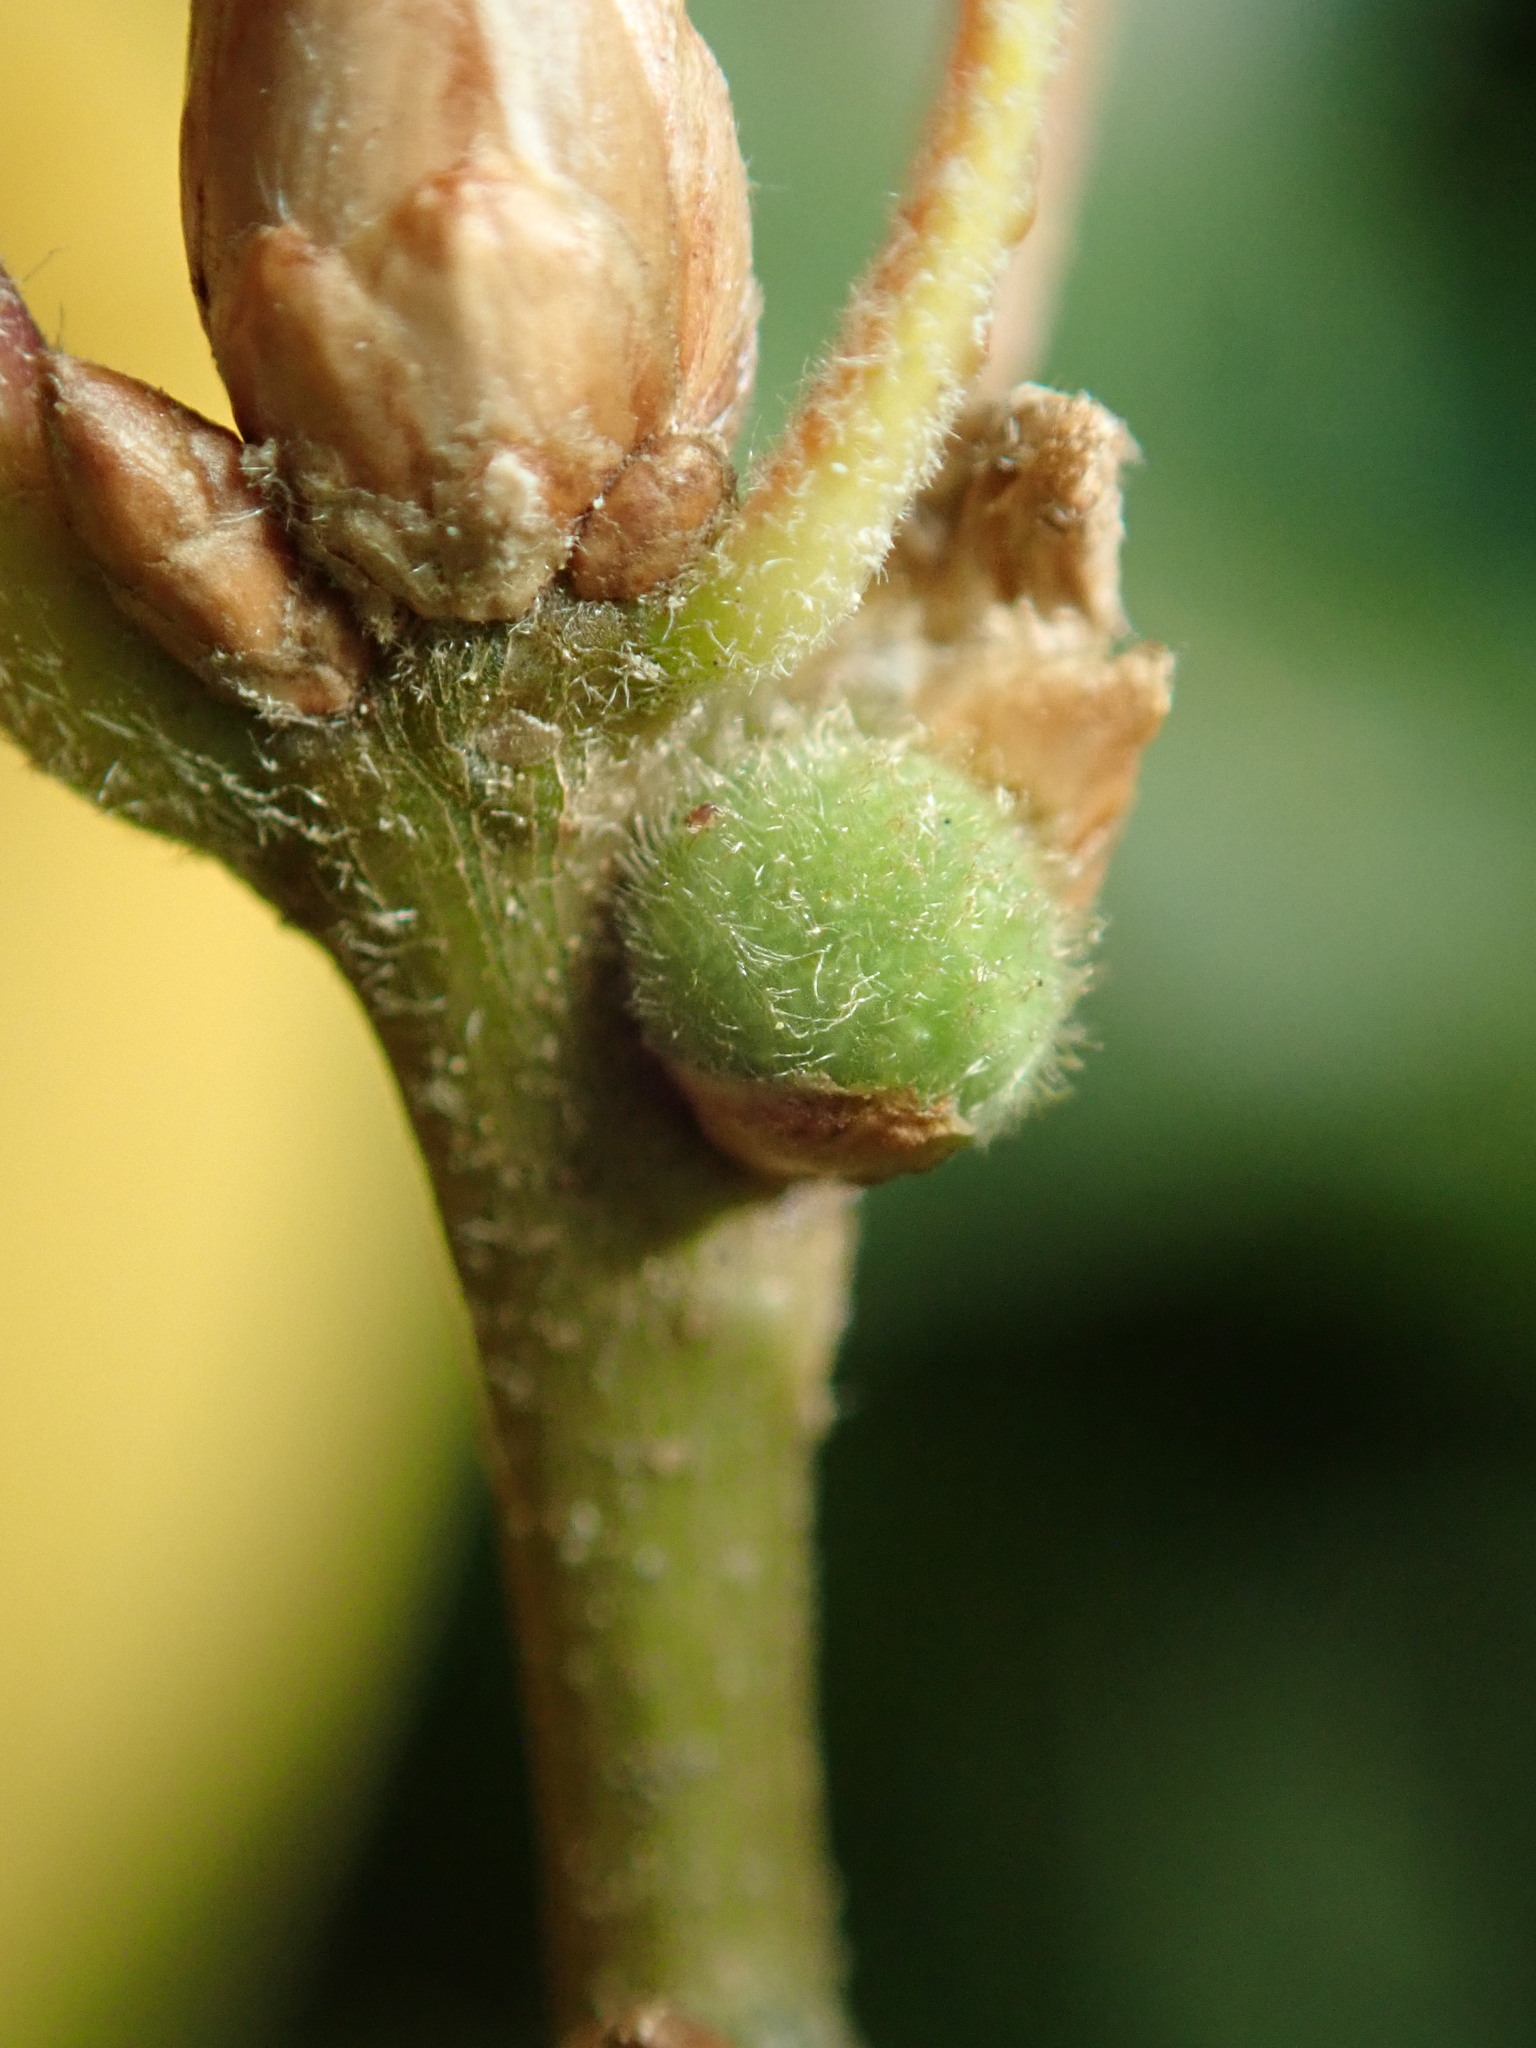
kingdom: Animalia
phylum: Arthropoda
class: Insecta
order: Hymenoptera
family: Cynipidae
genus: Callirhytis
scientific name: Callirhytis
